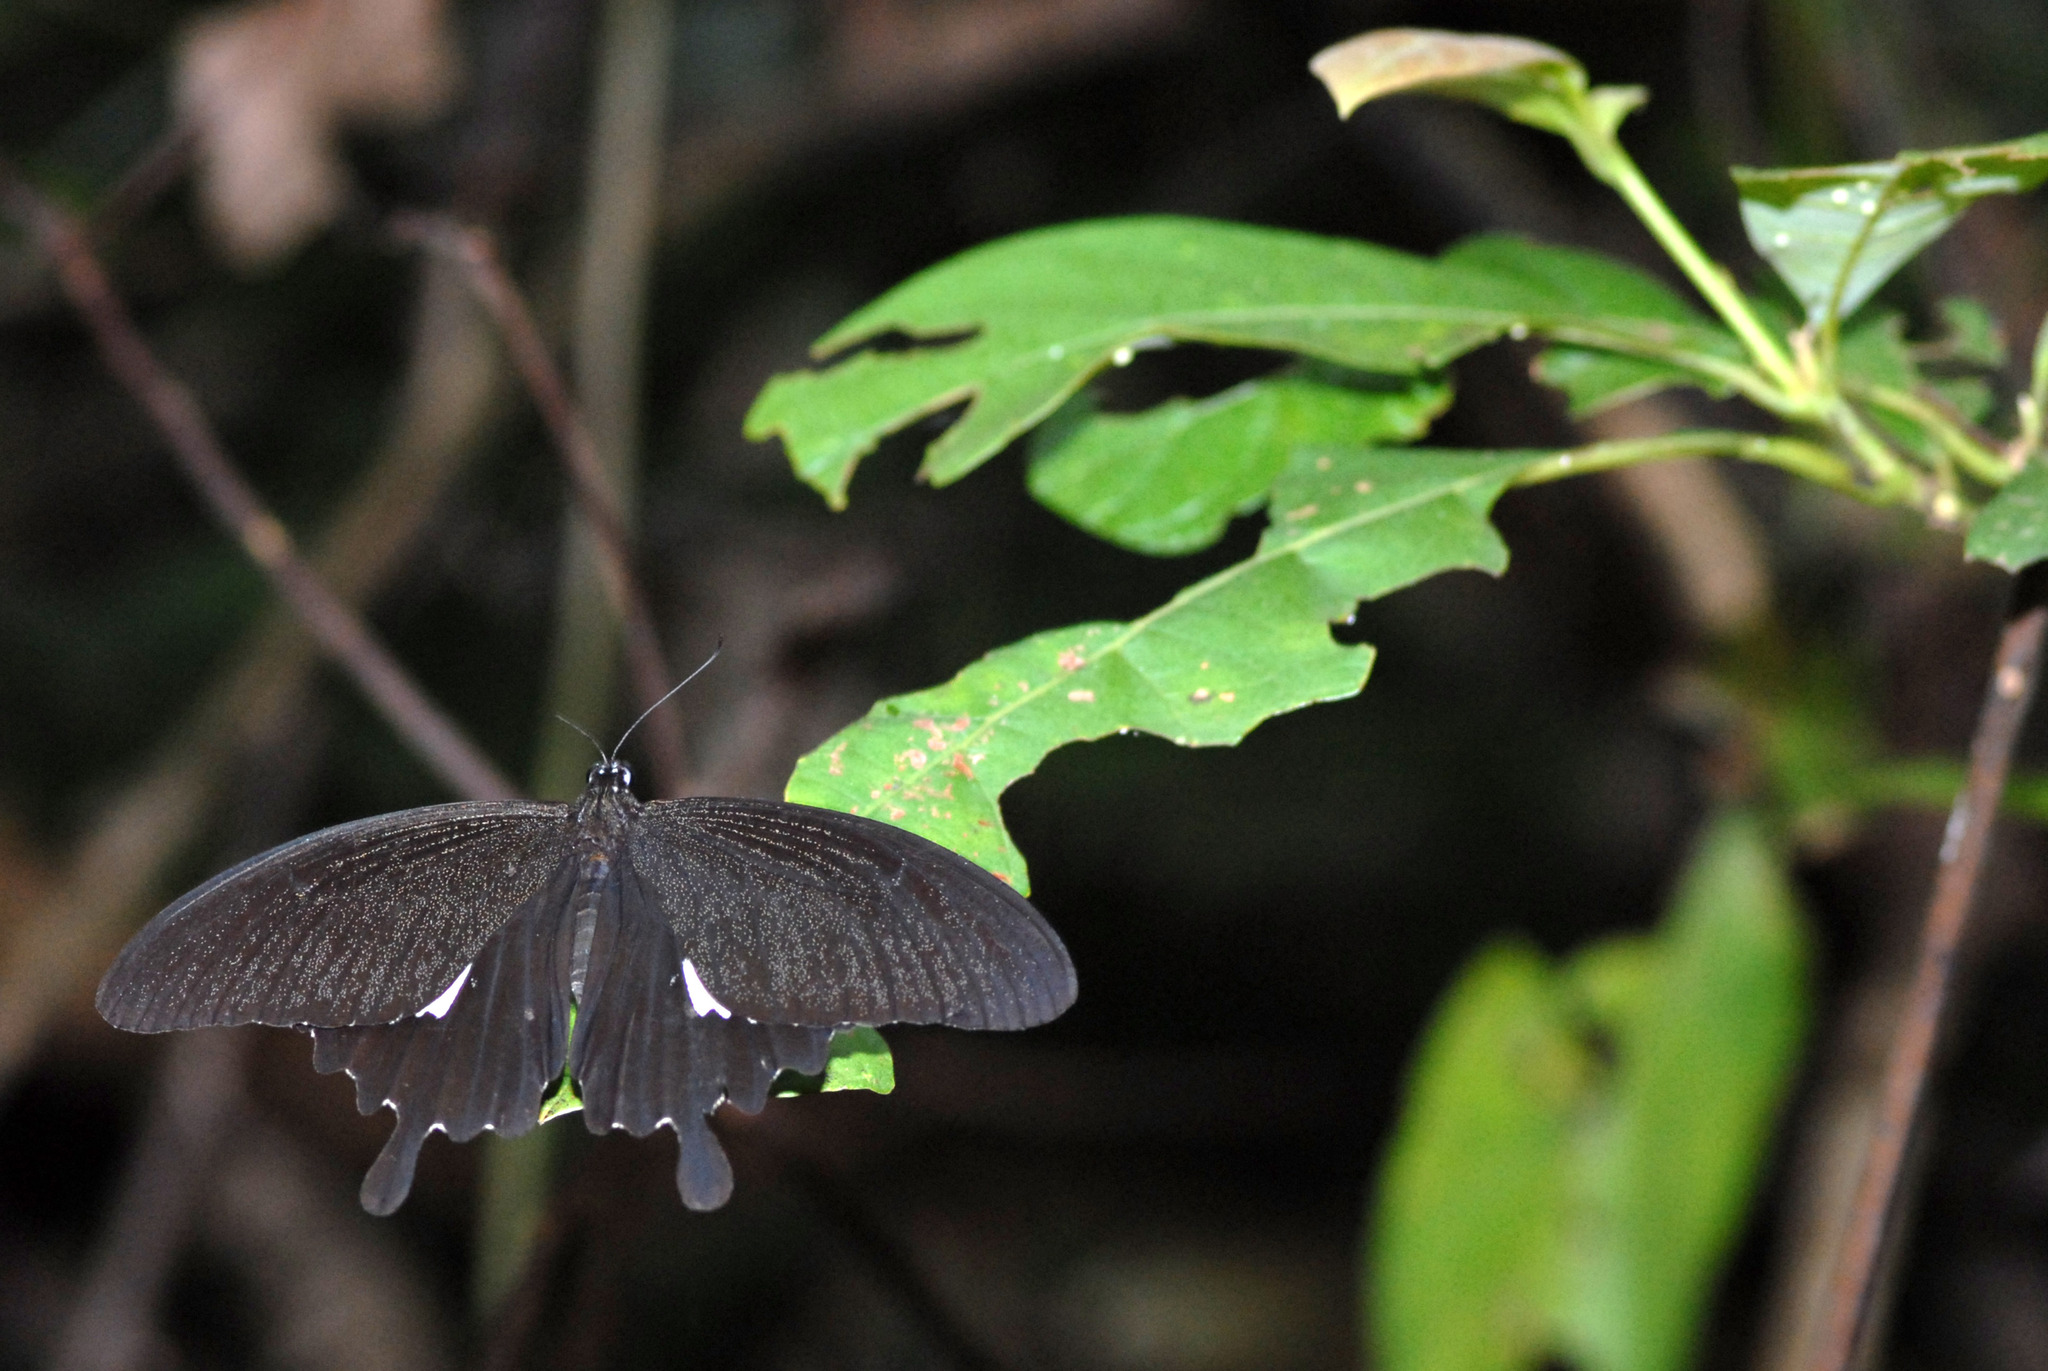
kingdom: Animalia
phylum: Arthropoda
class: Insecta
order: Lepidoptera
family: Papilionidae
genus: Papilio
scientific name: Papilio helenus
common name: Red helen
